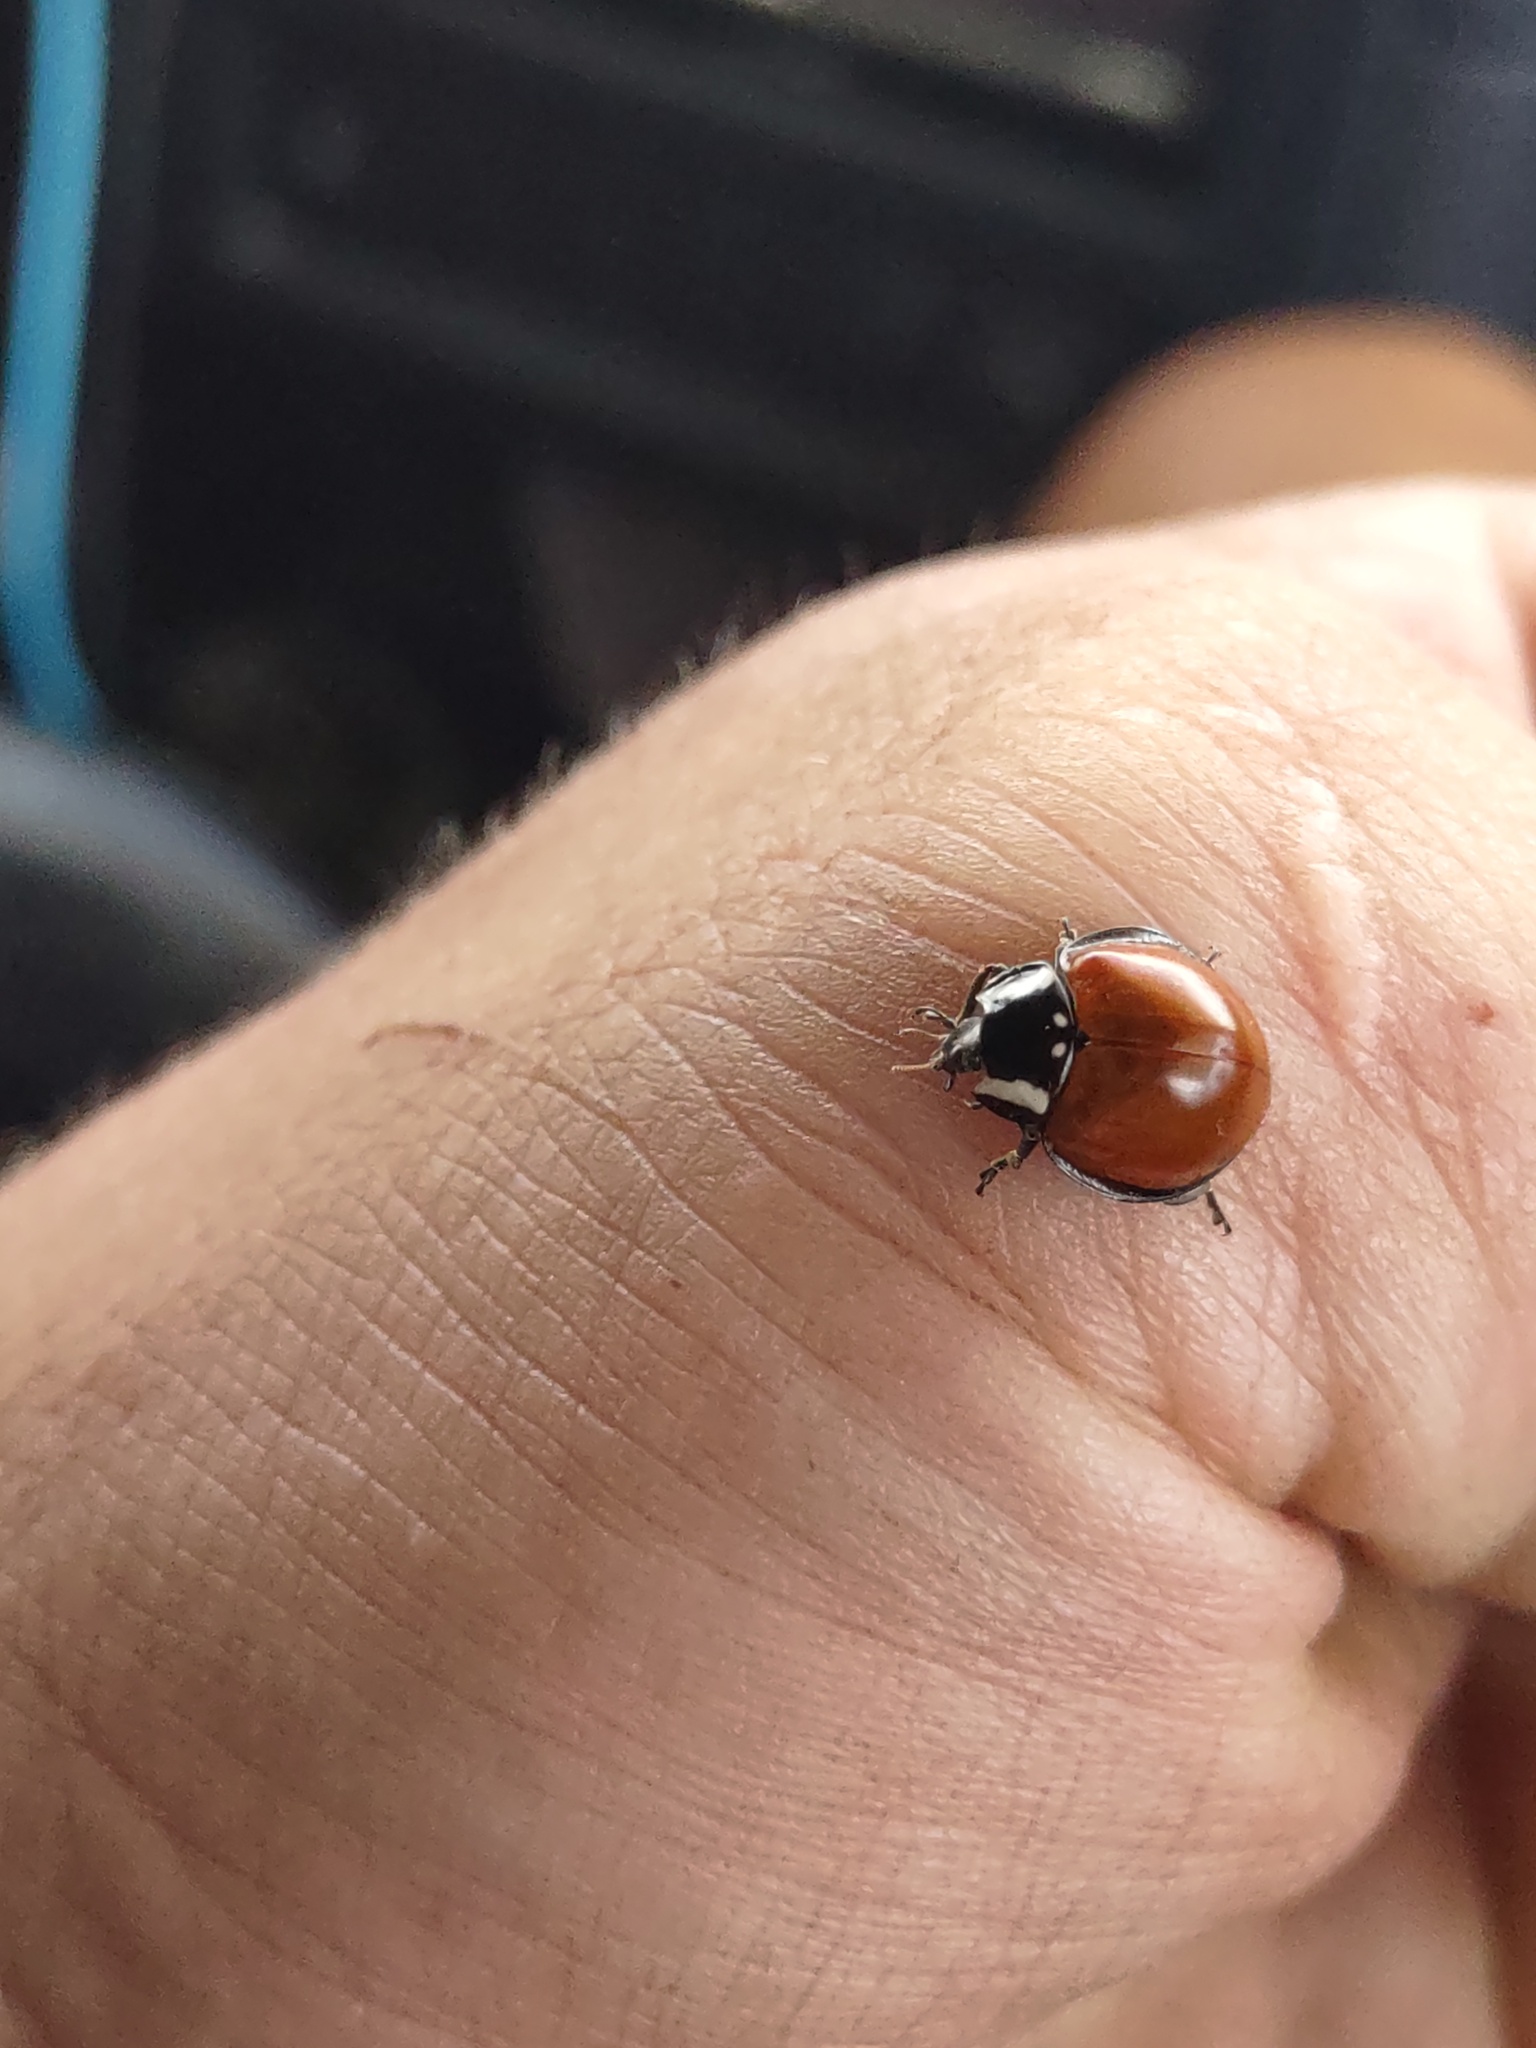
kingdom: Animalia
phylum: Arthropoda
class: Insecta
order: Coleoptera
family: Coccinellidae
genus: Anatis
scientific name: Anatis lecontei
